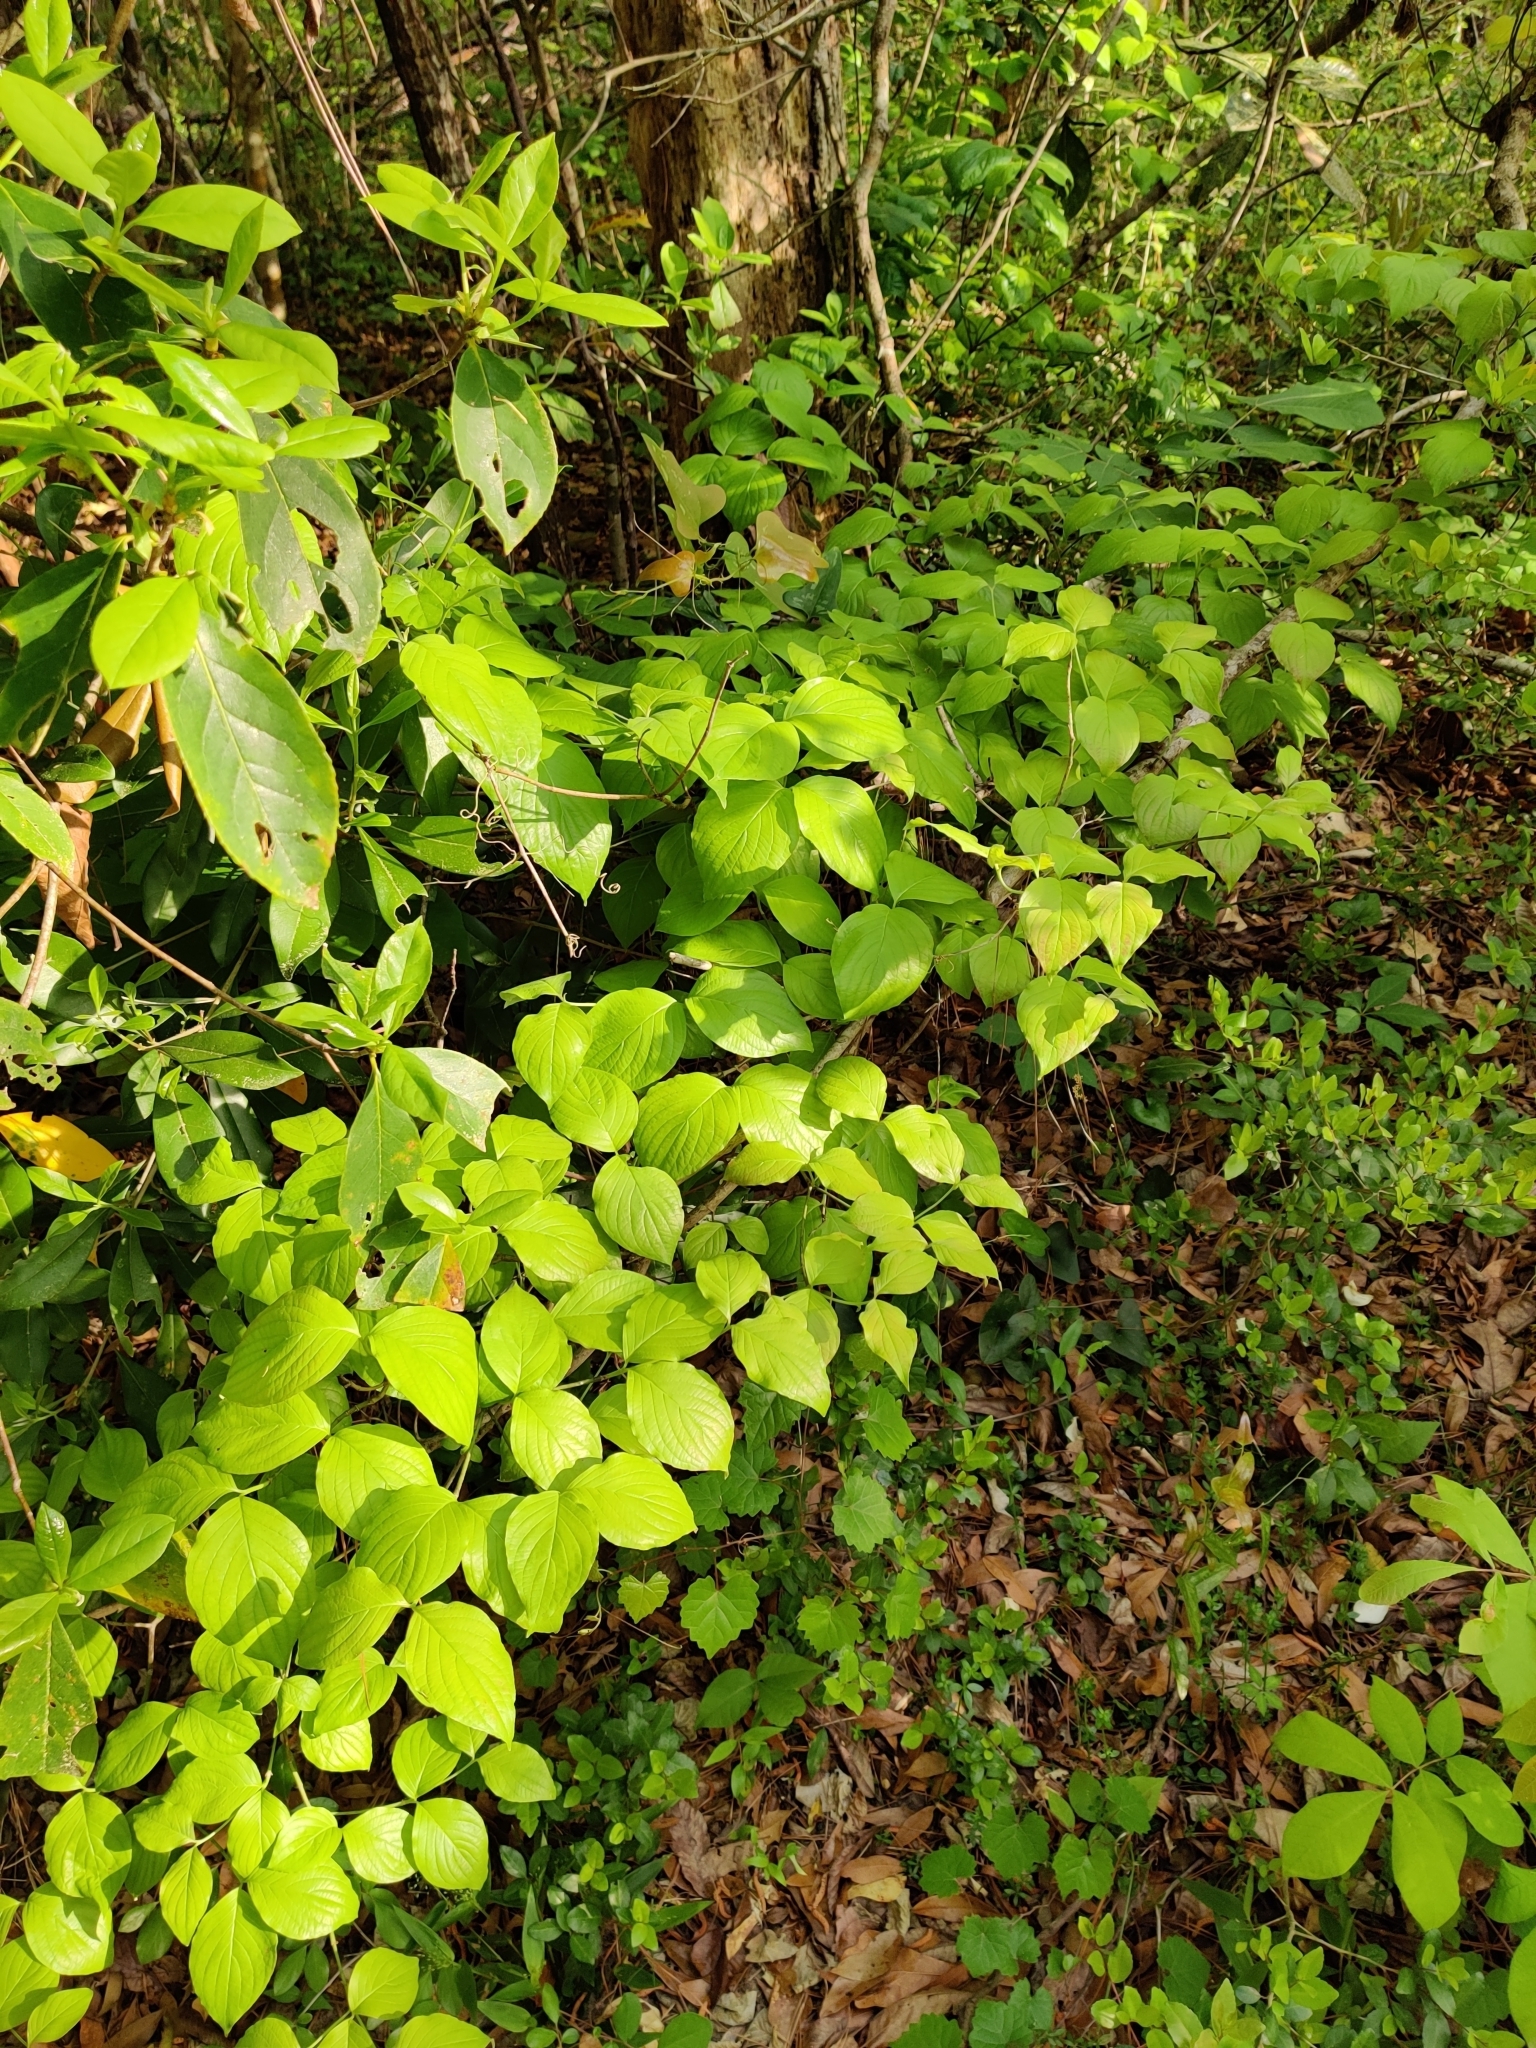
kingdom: Plantae
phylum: Tracheophyta
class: Magnoliopsida
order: Cornales
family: Cornaceae
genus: Cornus
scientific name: Cornus florida
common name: Flowering dogwood
